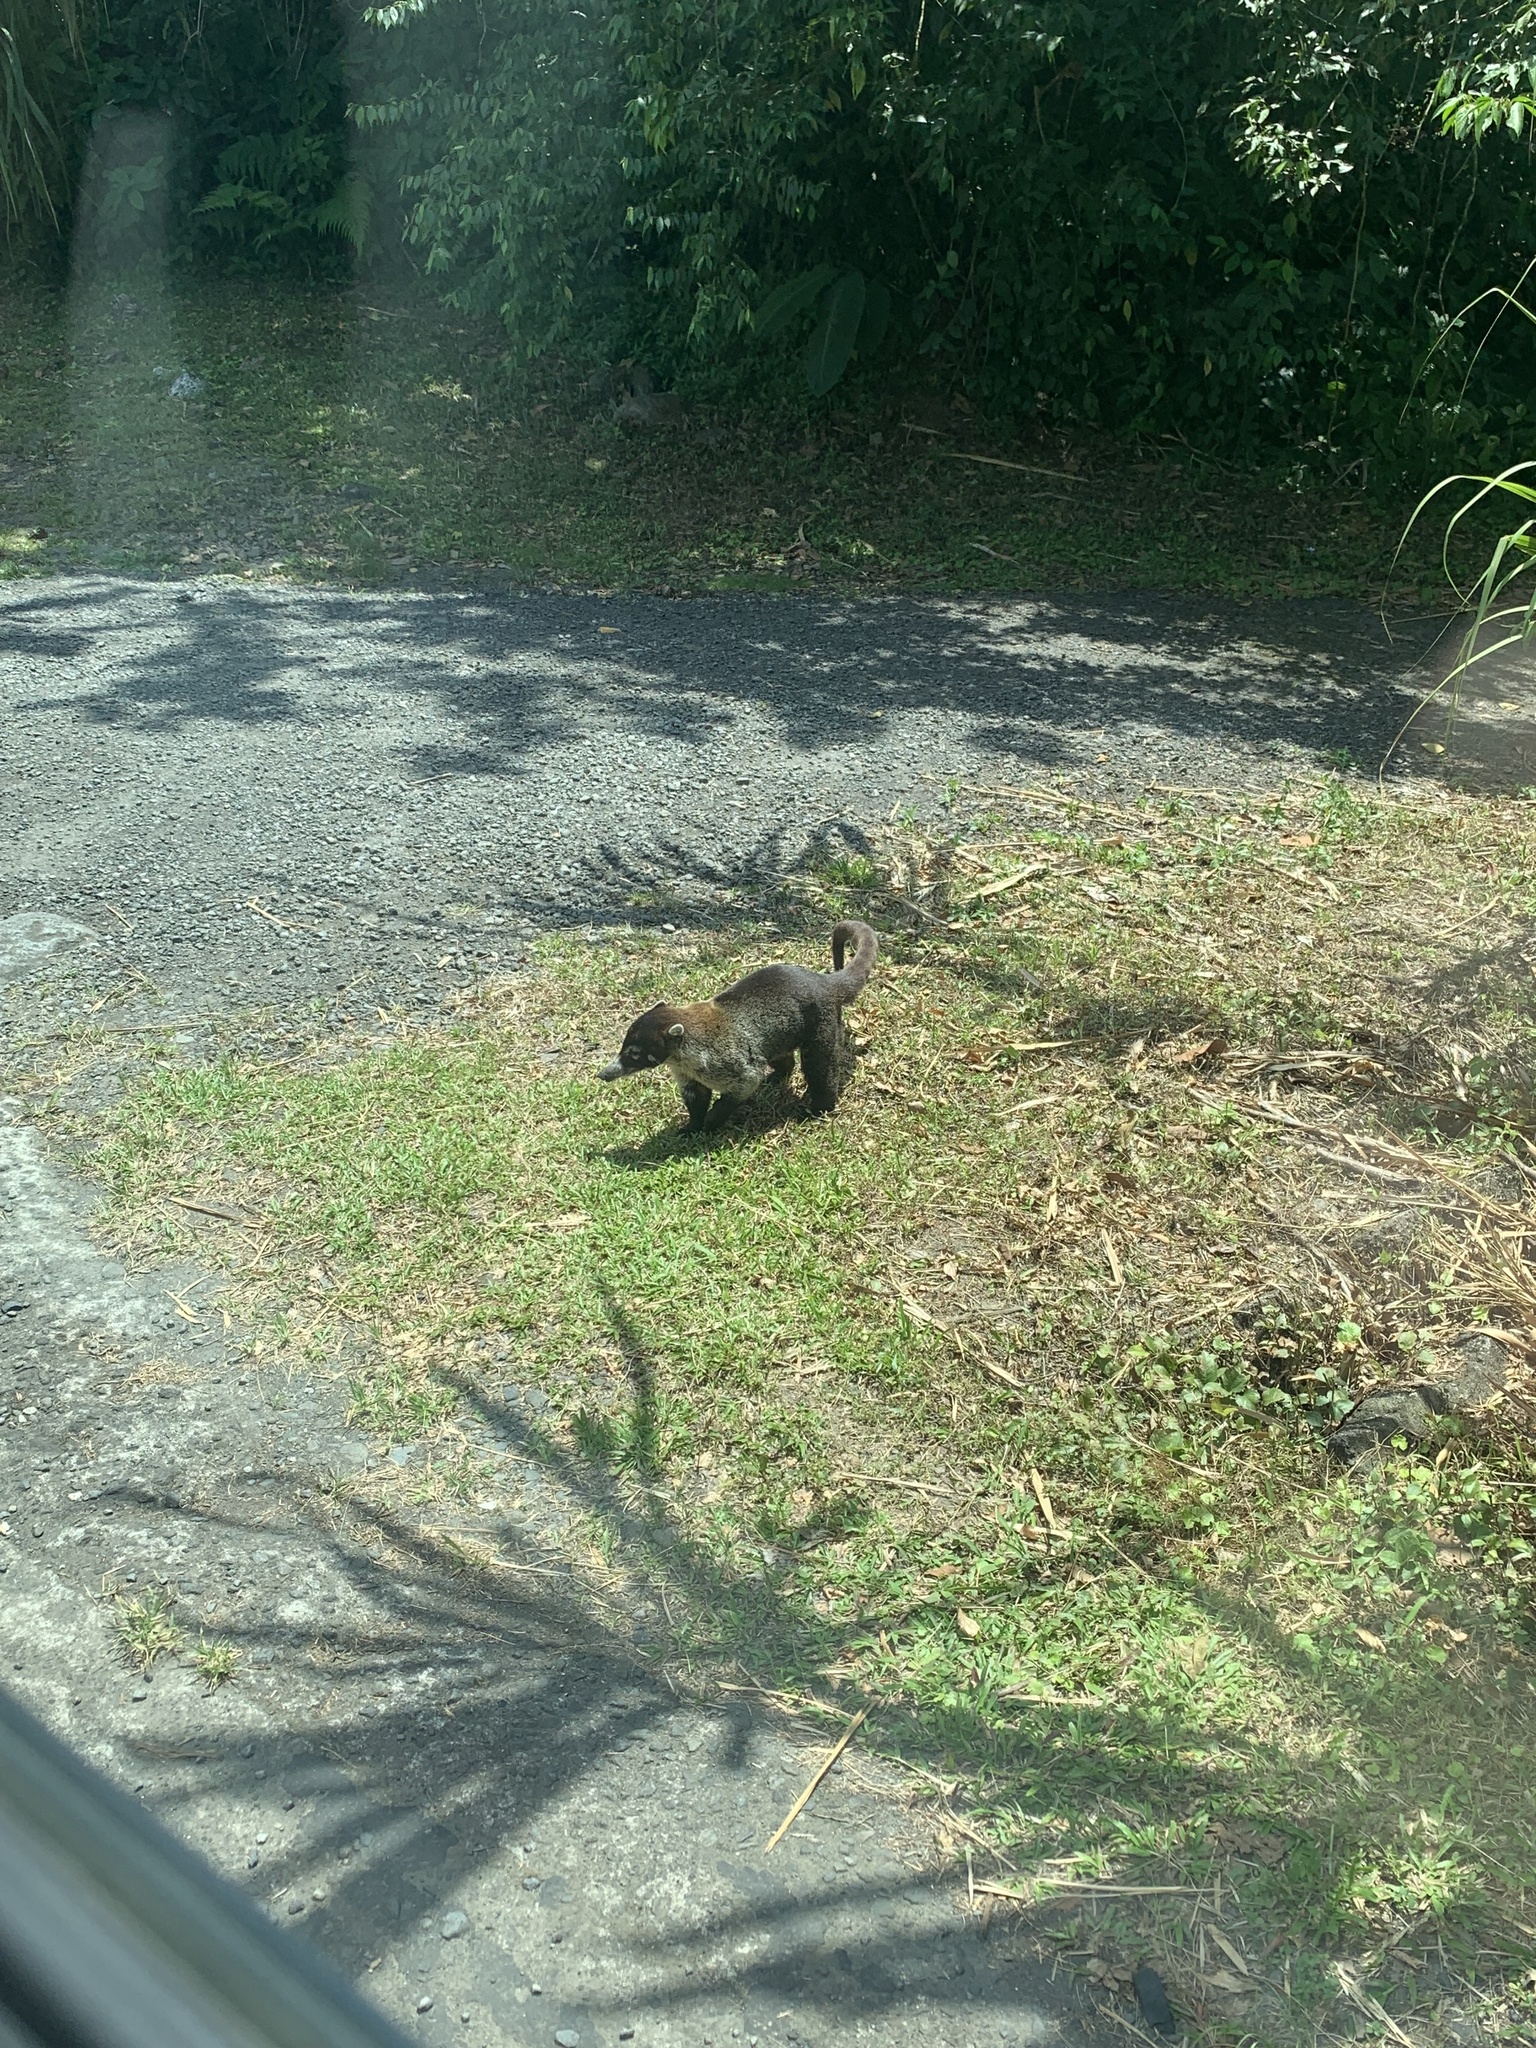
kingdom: Animalia
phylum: Chordata
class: Mammalia
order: Carnivora
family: Procyonidae
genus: Nasua
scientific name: Nasua narica
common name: White-nosed coati
